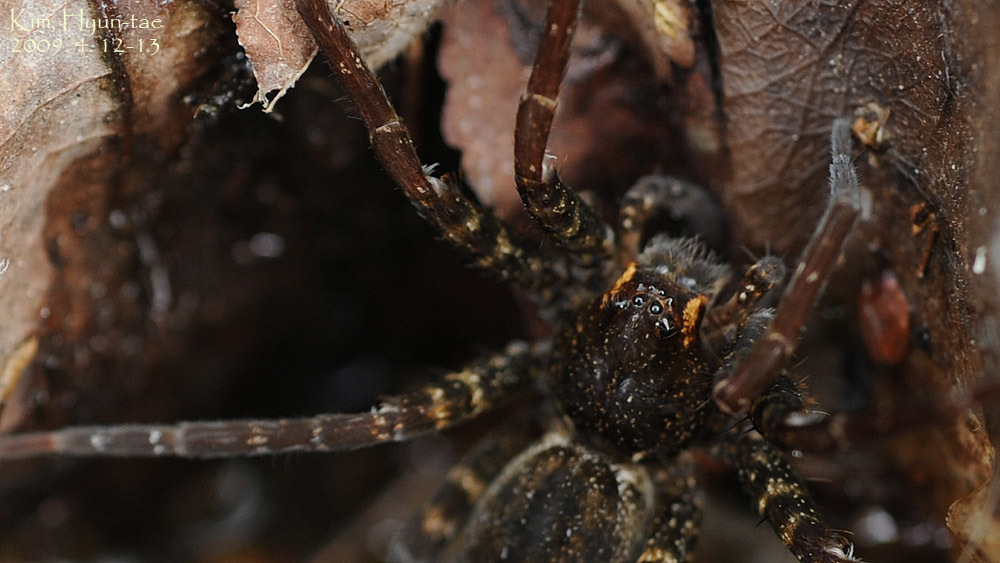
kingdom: Animalia
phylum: Arthropoda
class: Arachnida
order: Araneae
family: Pisauridae
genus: Dolomedes
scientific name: Dolomedes raptor
